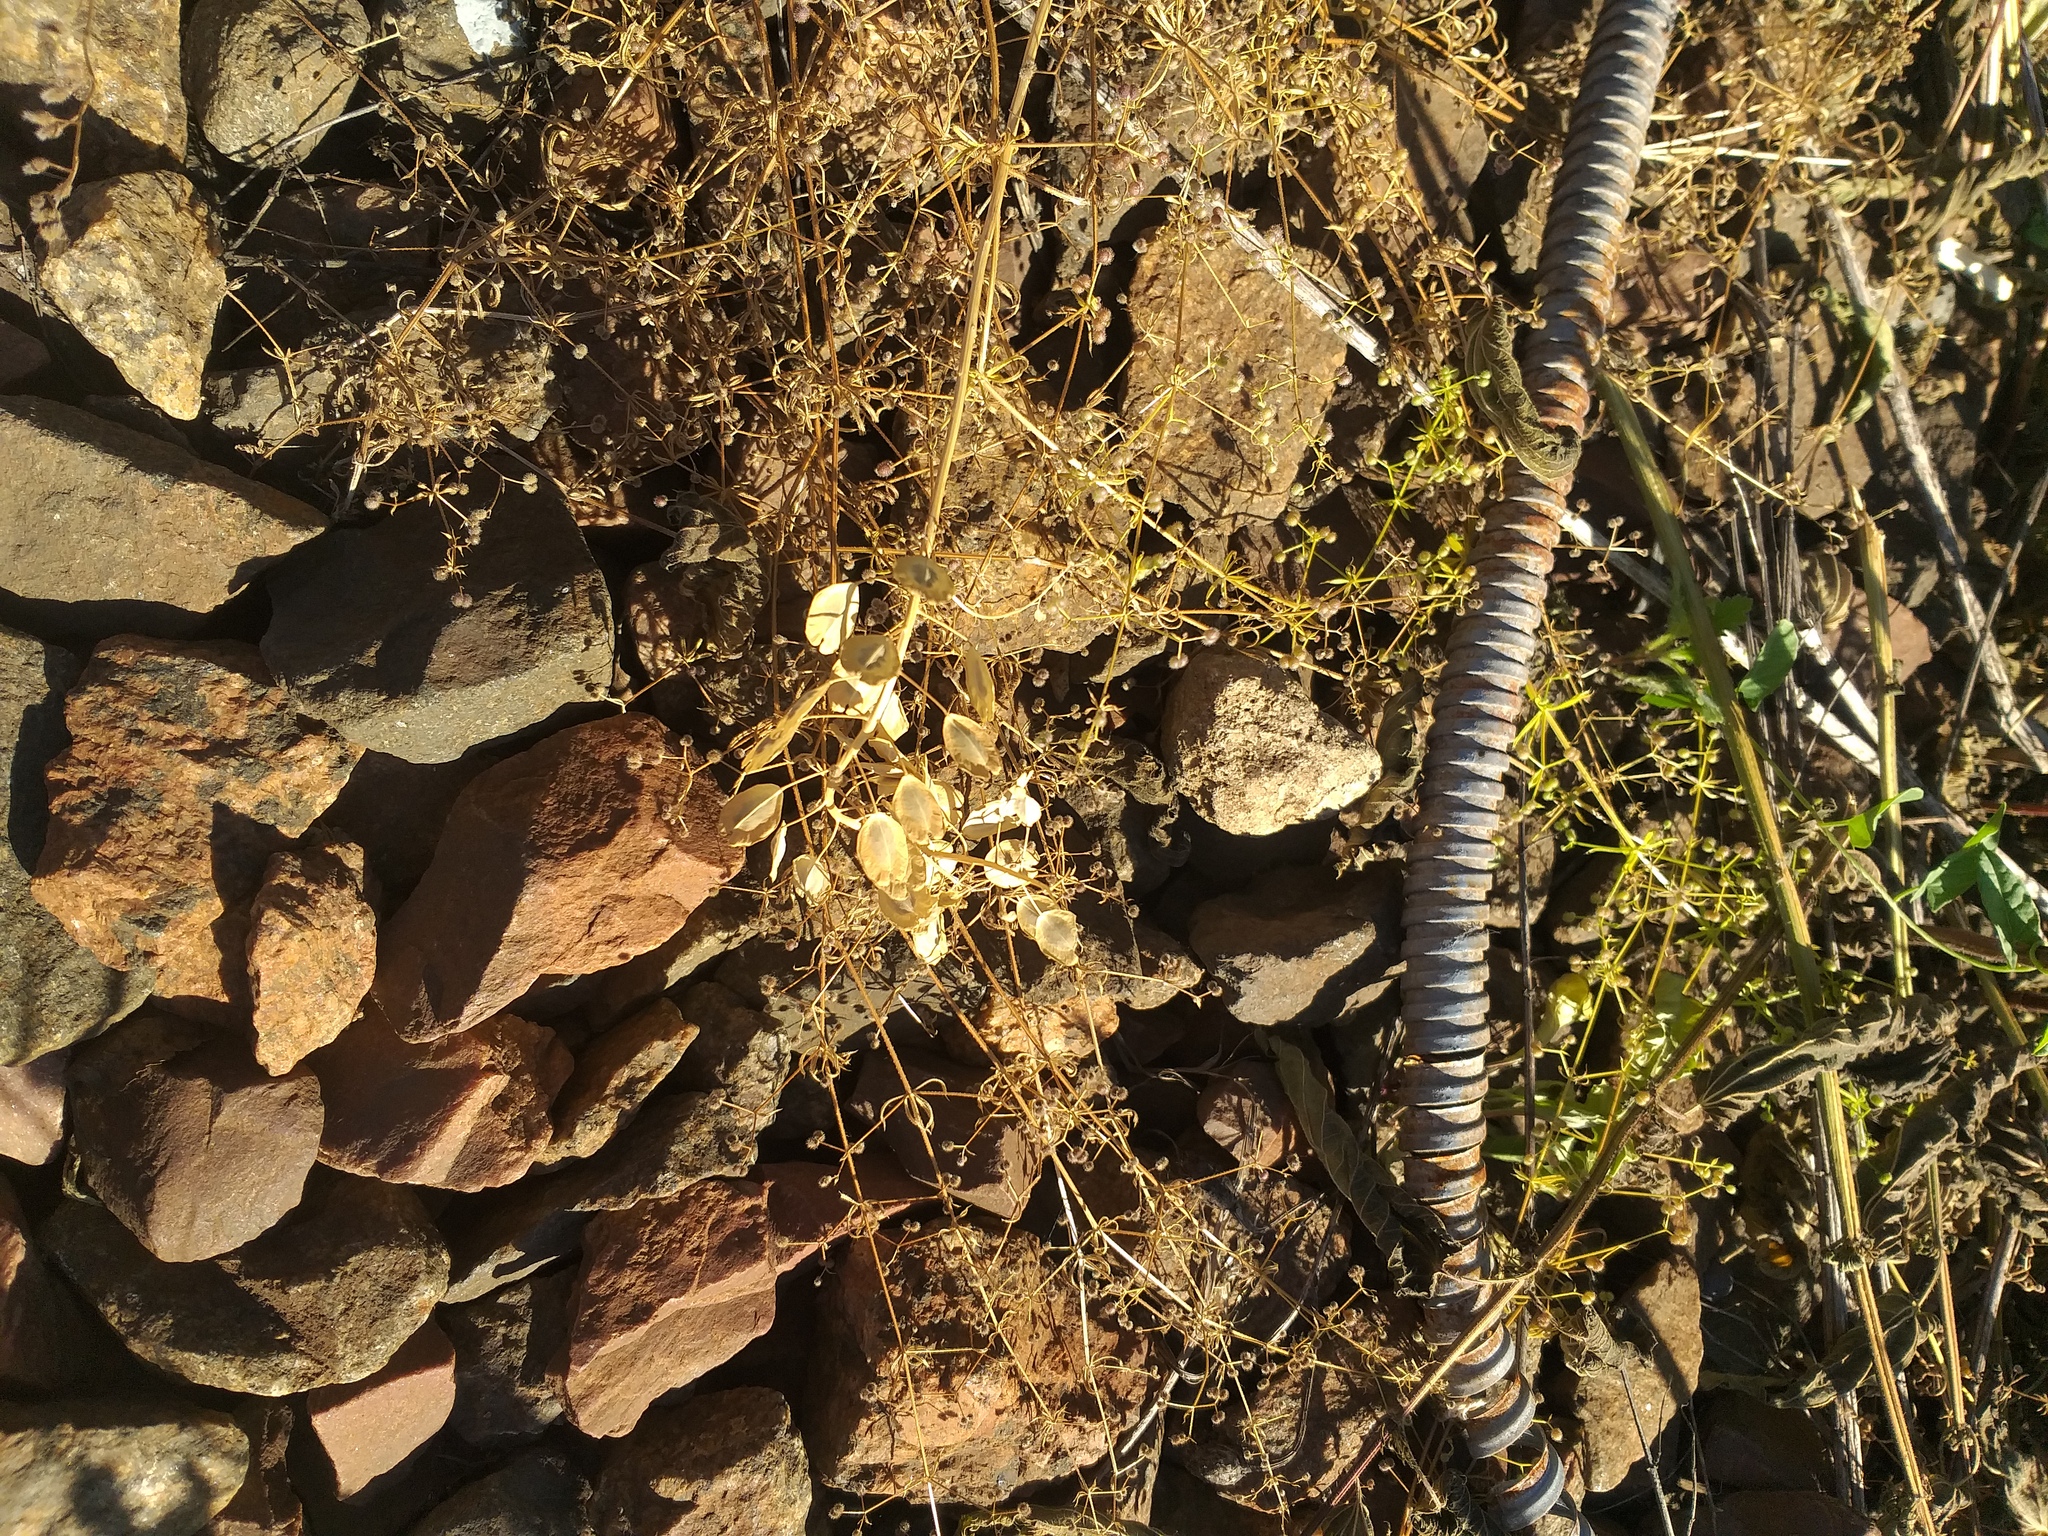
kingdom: Plantae
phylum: Tracheophyta
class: Magnoliopsida
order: Brassicales
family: Brassicaceae
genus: Thlaspi
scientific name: Thlaspi arvense
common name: Field pennycress
